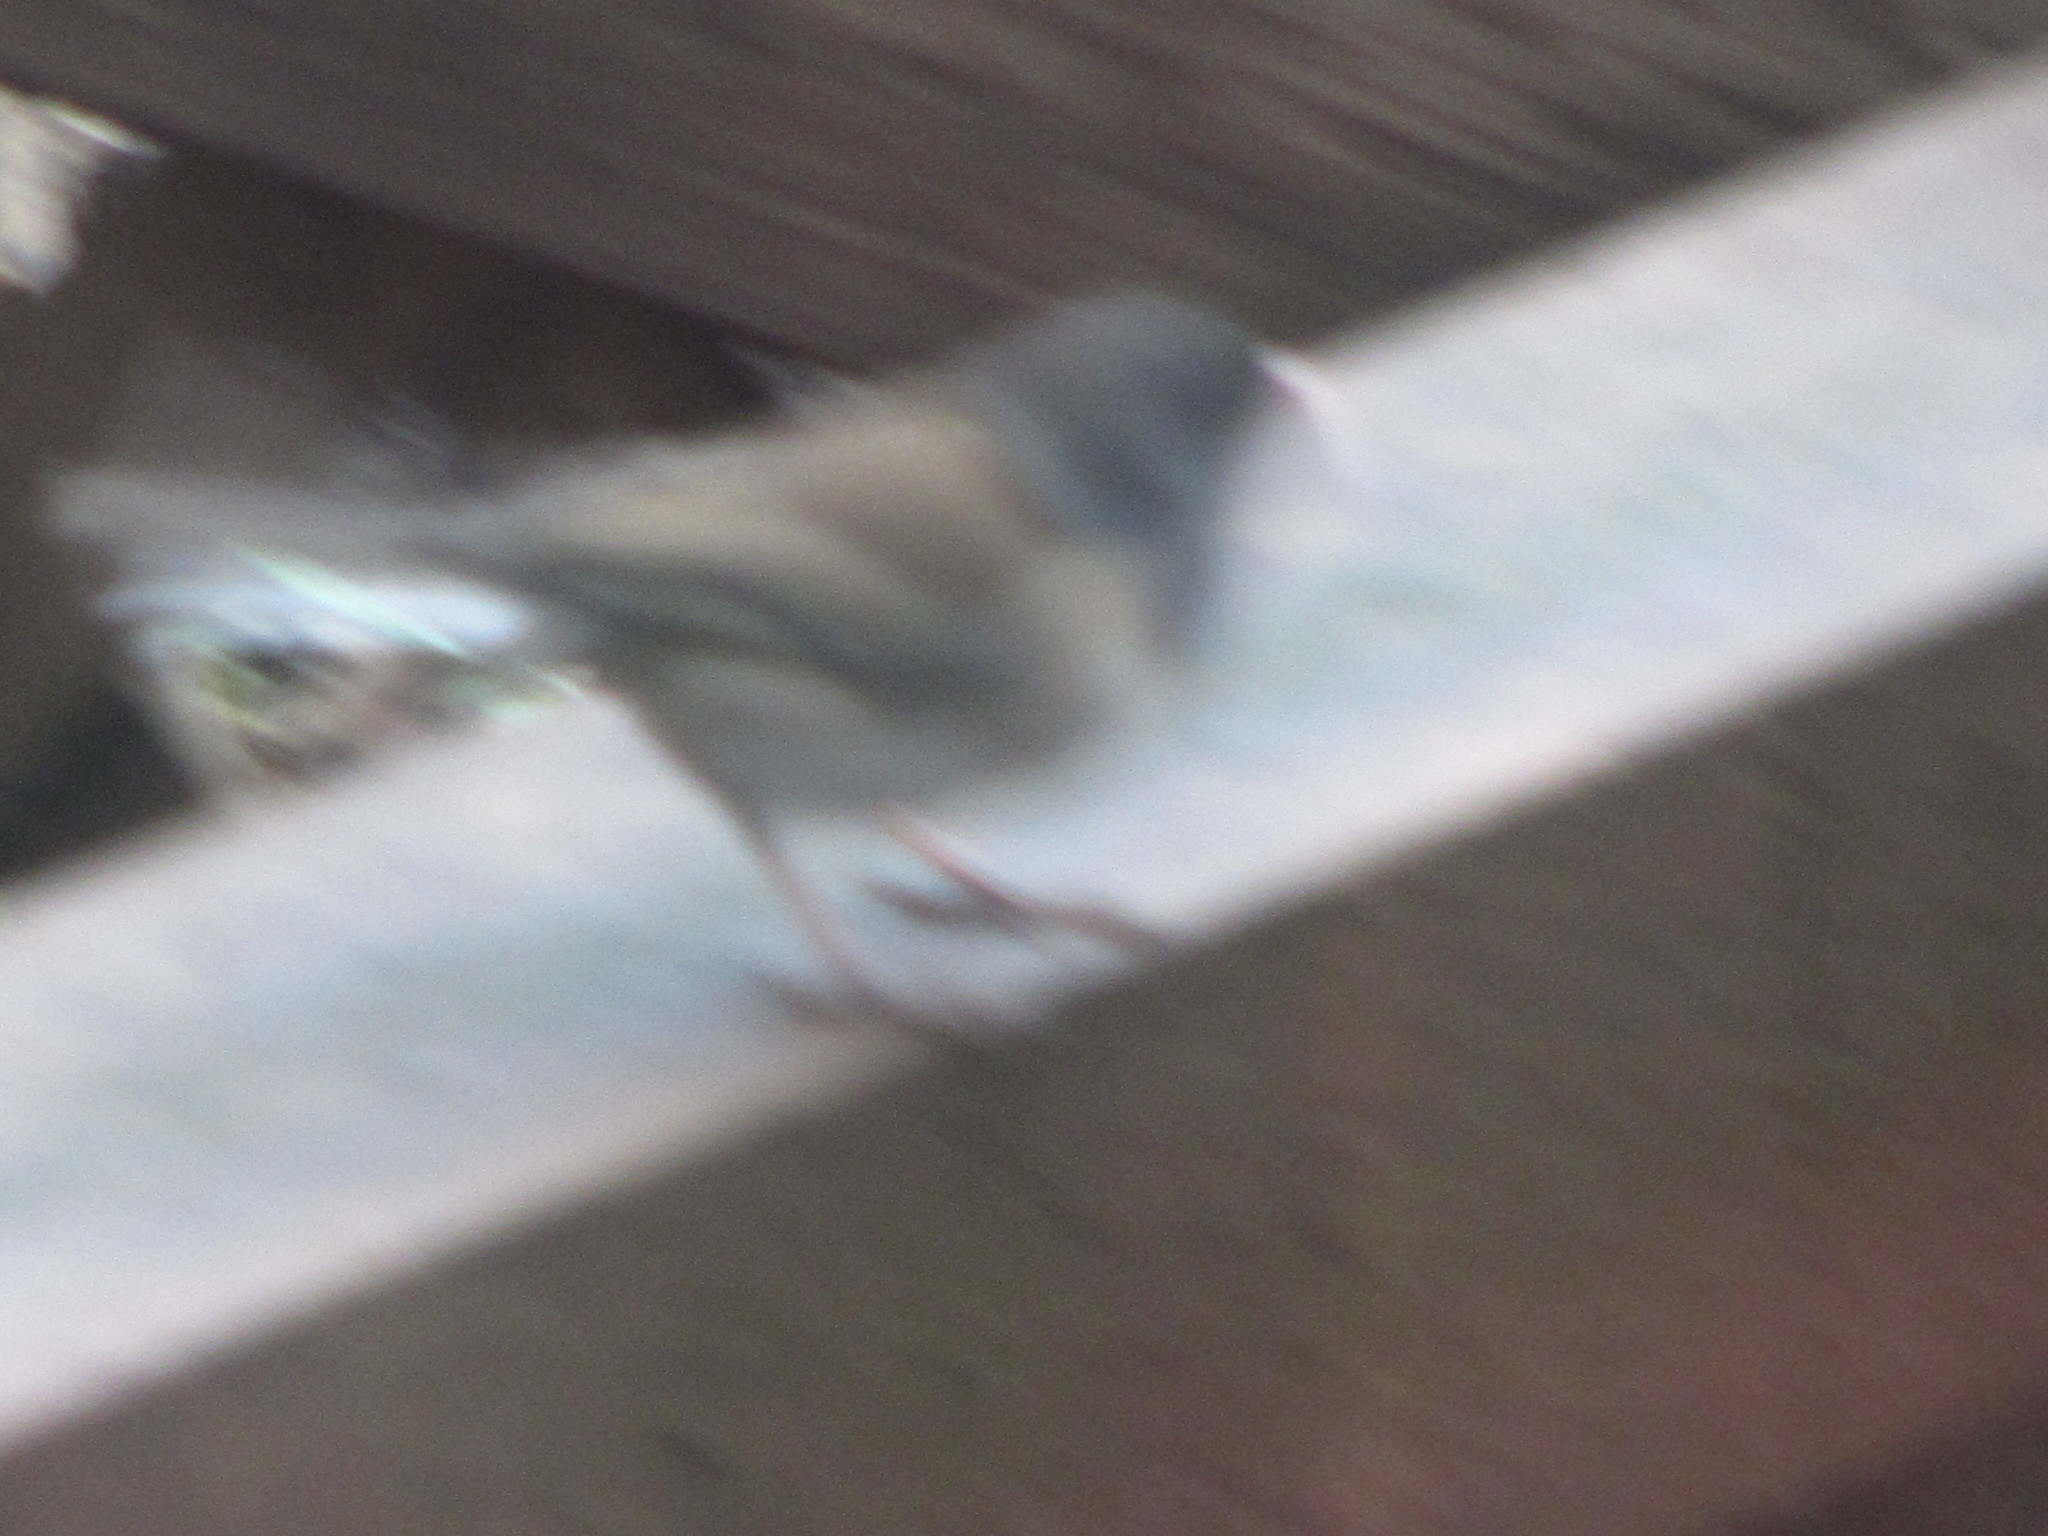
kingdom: Animalia
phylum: Chordata
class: Aves
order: Passeriformes
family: Passerellidae
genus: Junco
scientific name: Junco hyemalis
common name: Dark-eyed junco
